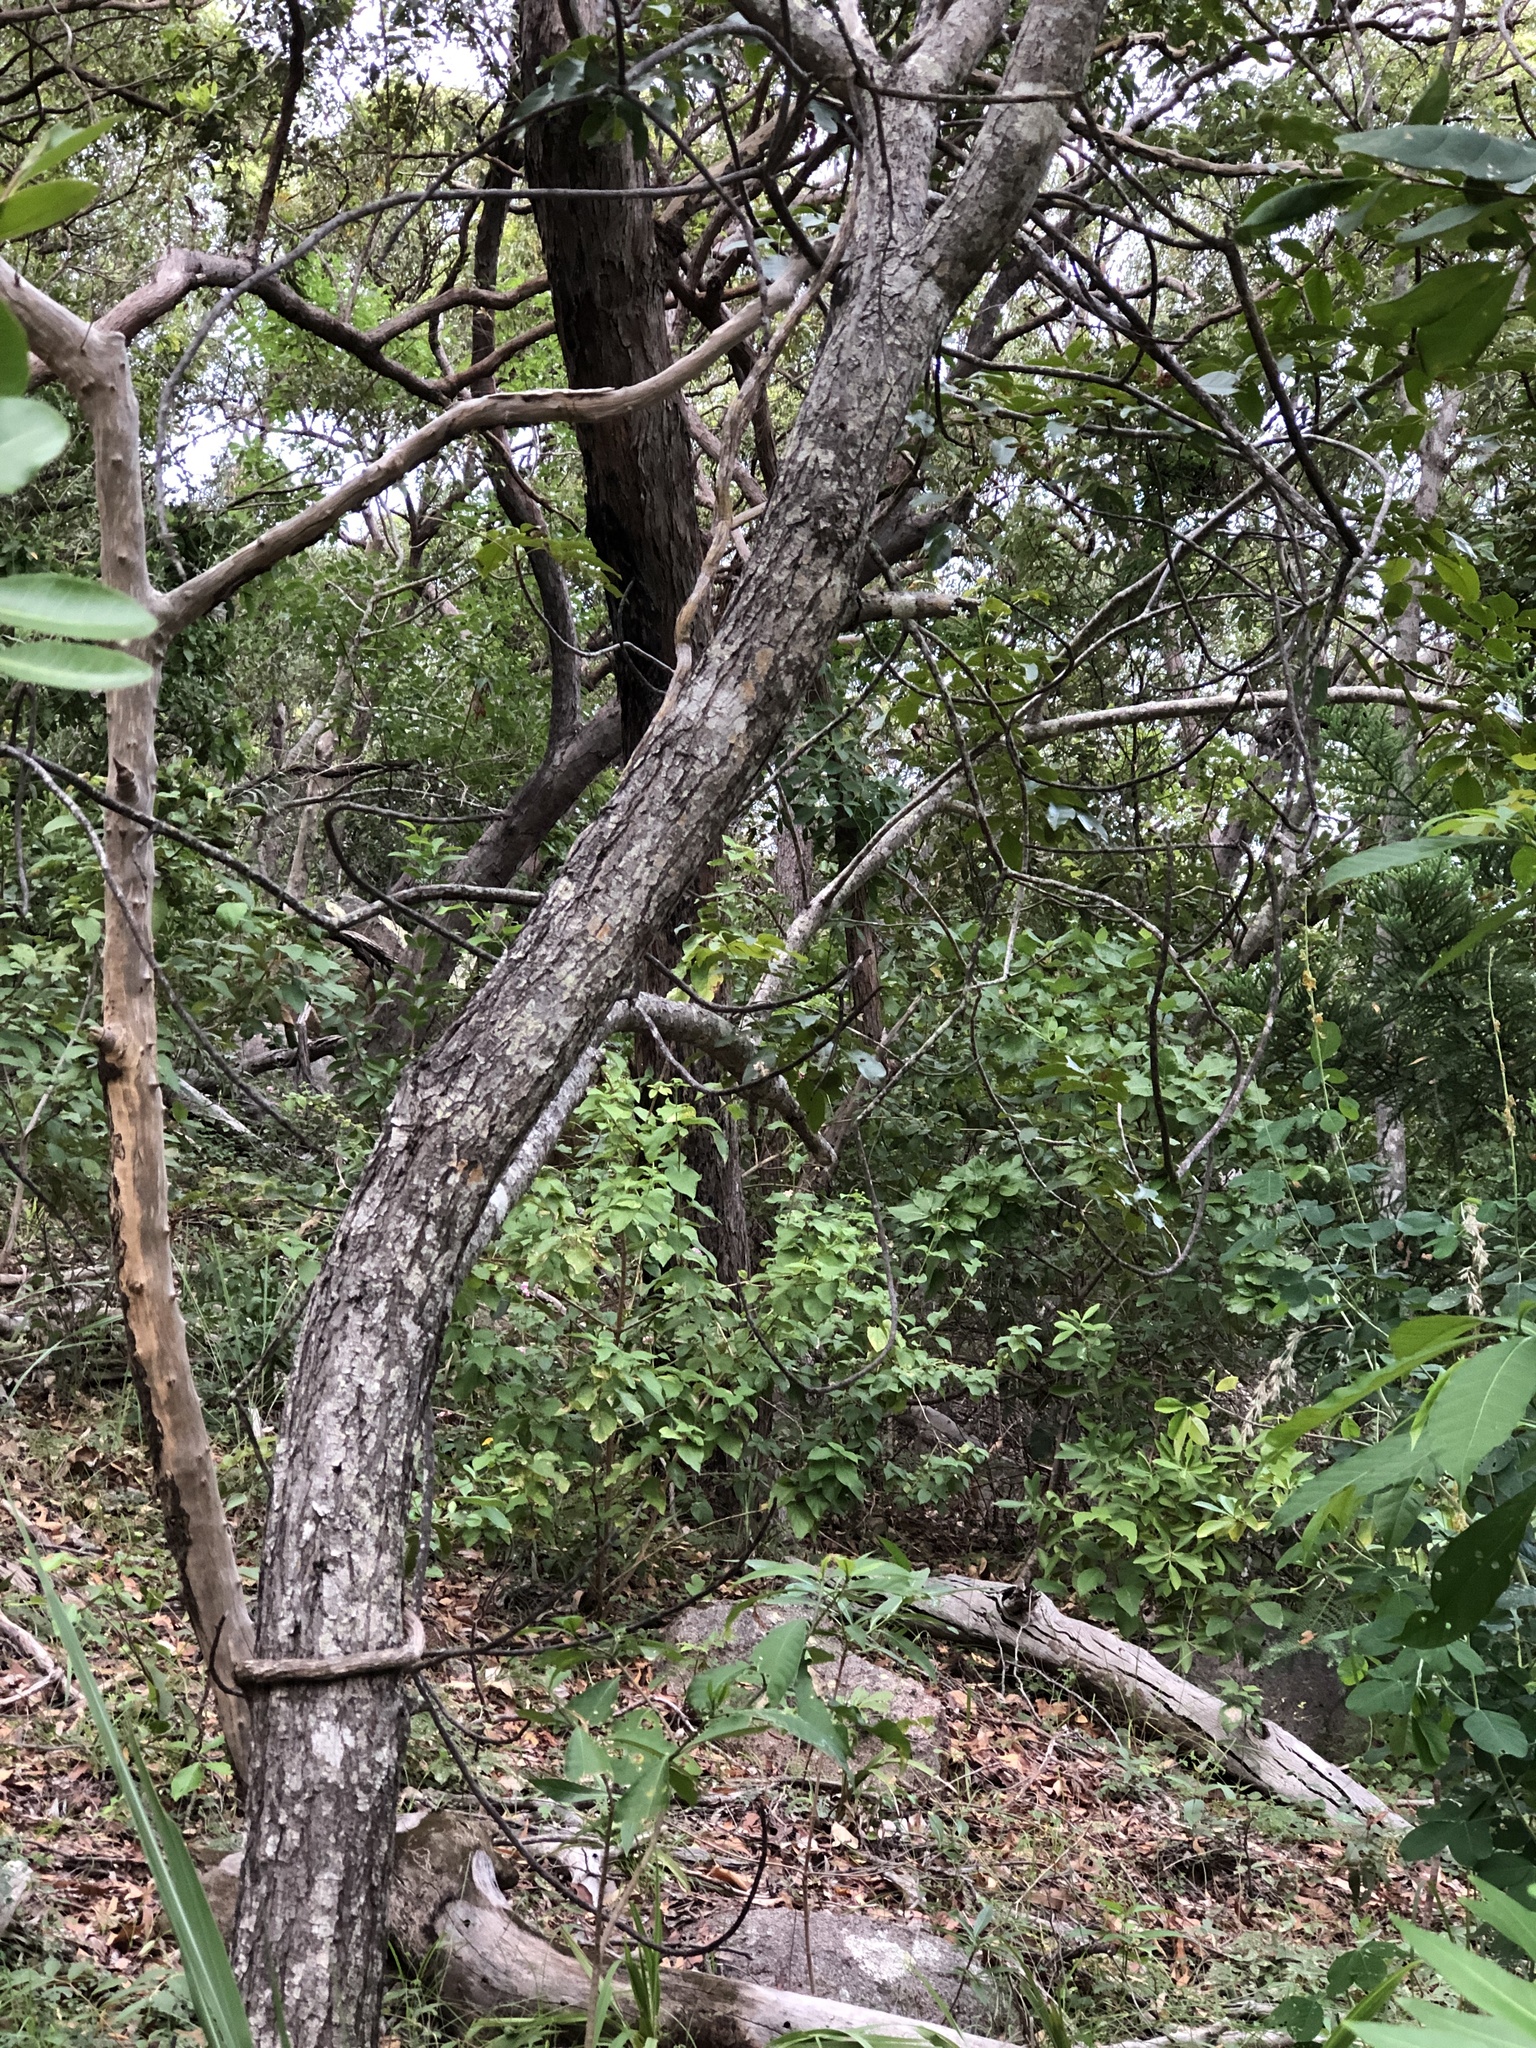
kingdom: Plantae
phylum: Tracheophyta
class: Magnoliopsida
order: Sapindales
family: Anacardiaceae
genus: Pleiogynium
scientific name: Pleiogynium timoriense
